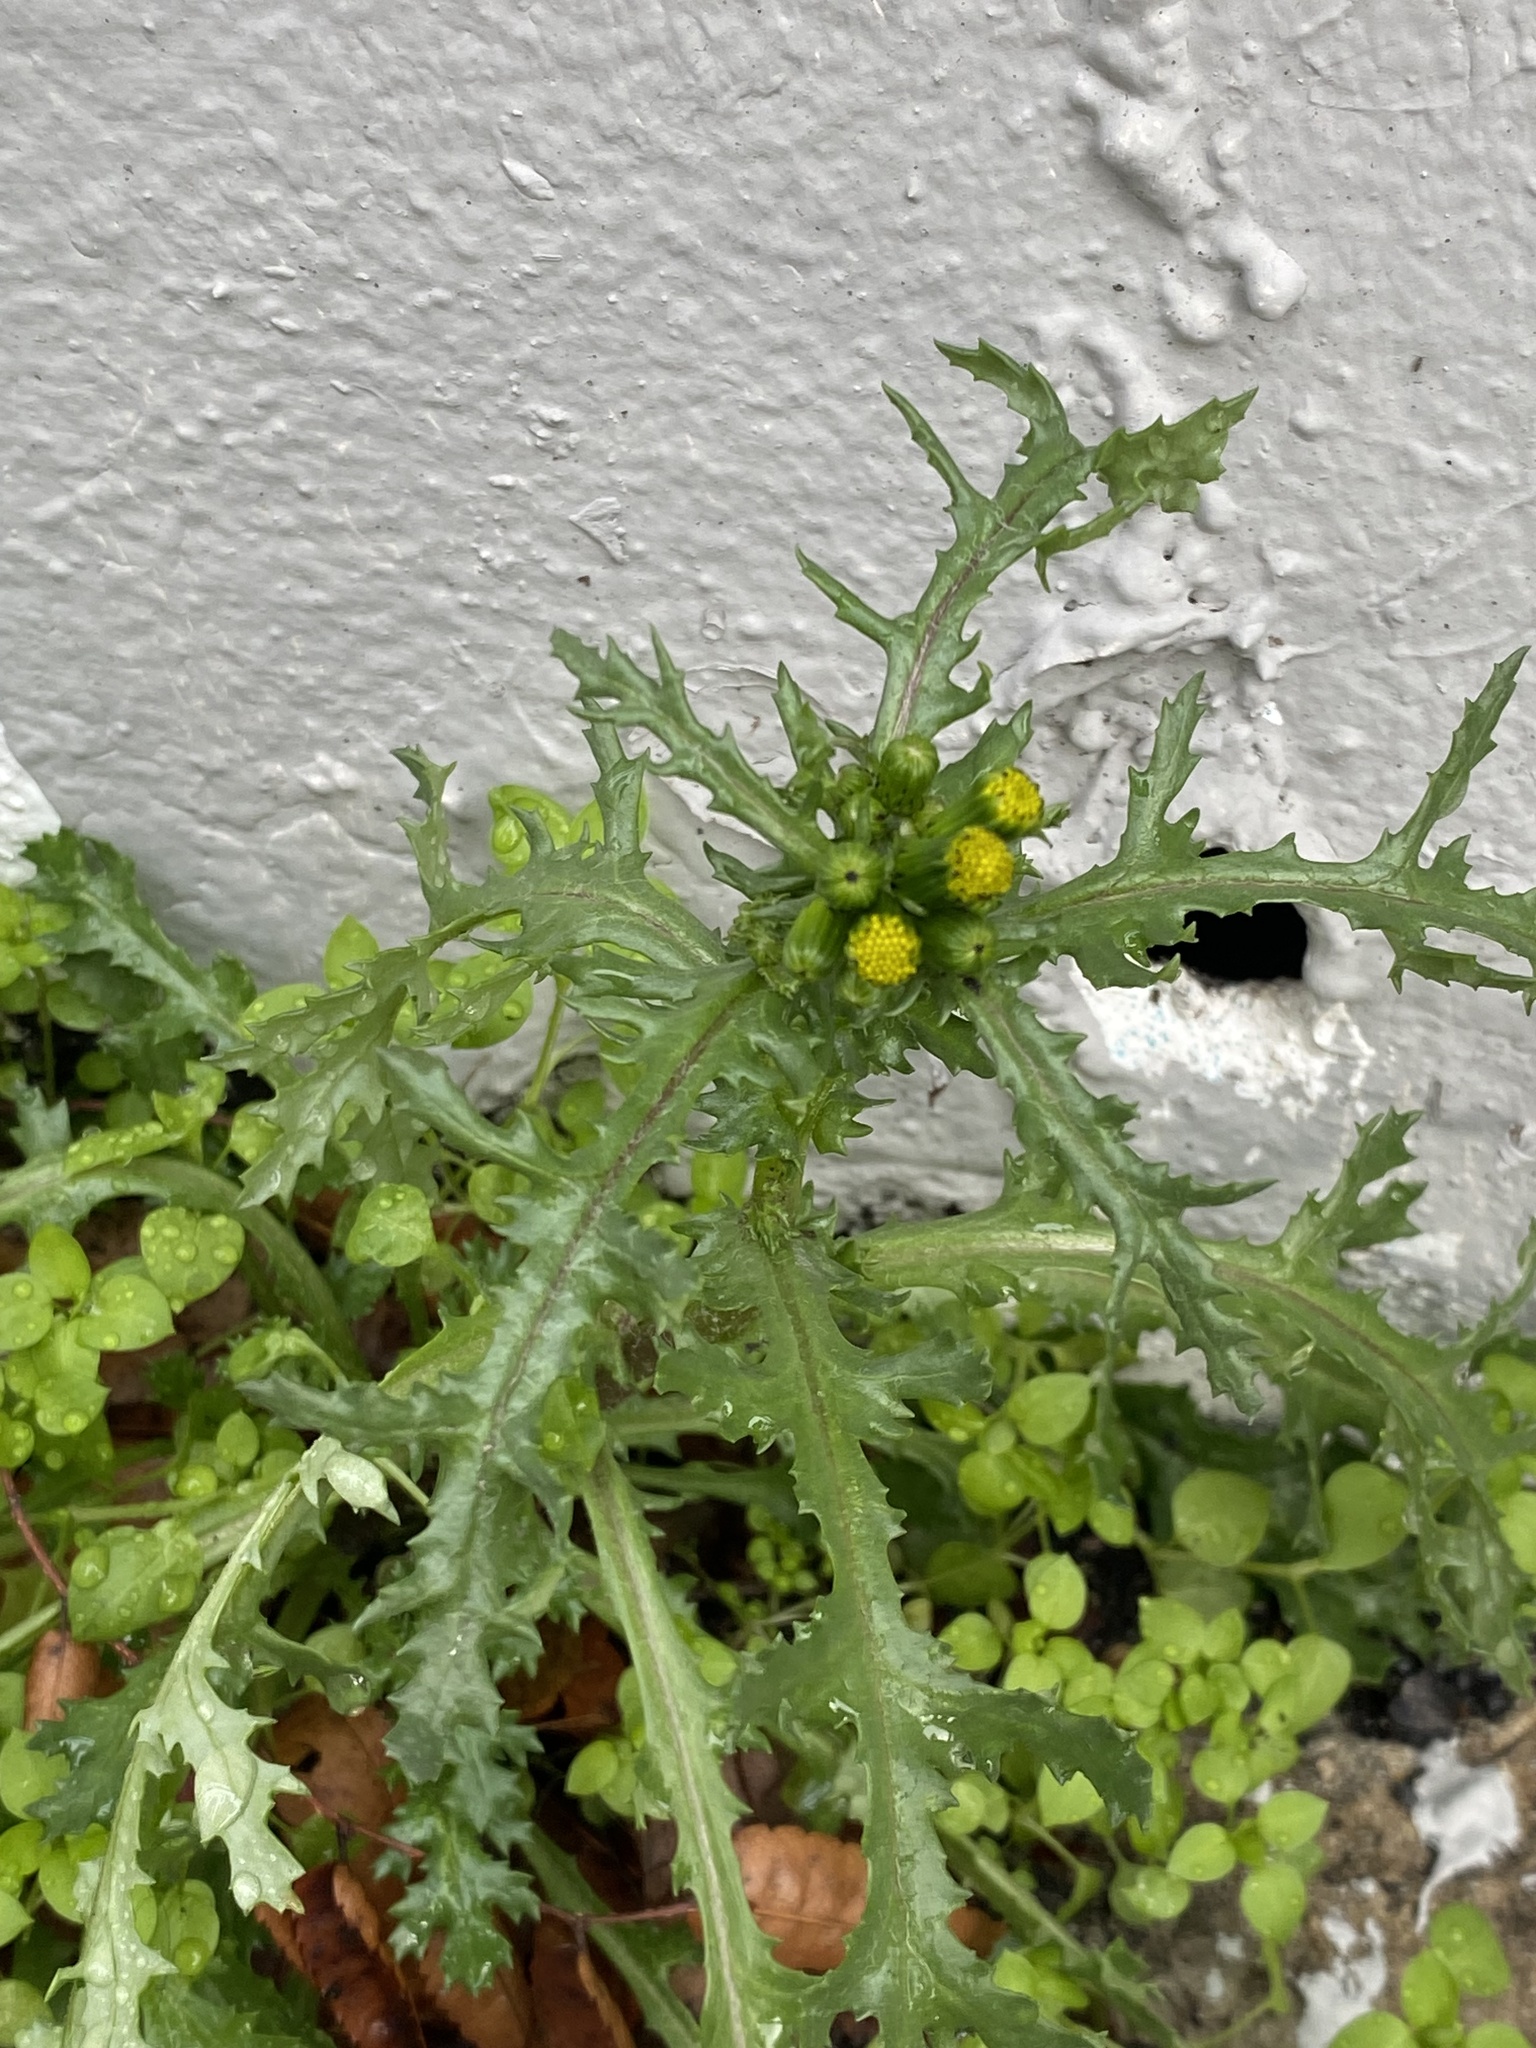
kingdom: Plantae
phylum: Tracheophyta
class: Magnoliopsida
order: Asterales
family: Asteraceae
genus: Senecio
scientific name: Senecio vulgaris
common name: Old-man-in-the-spring
